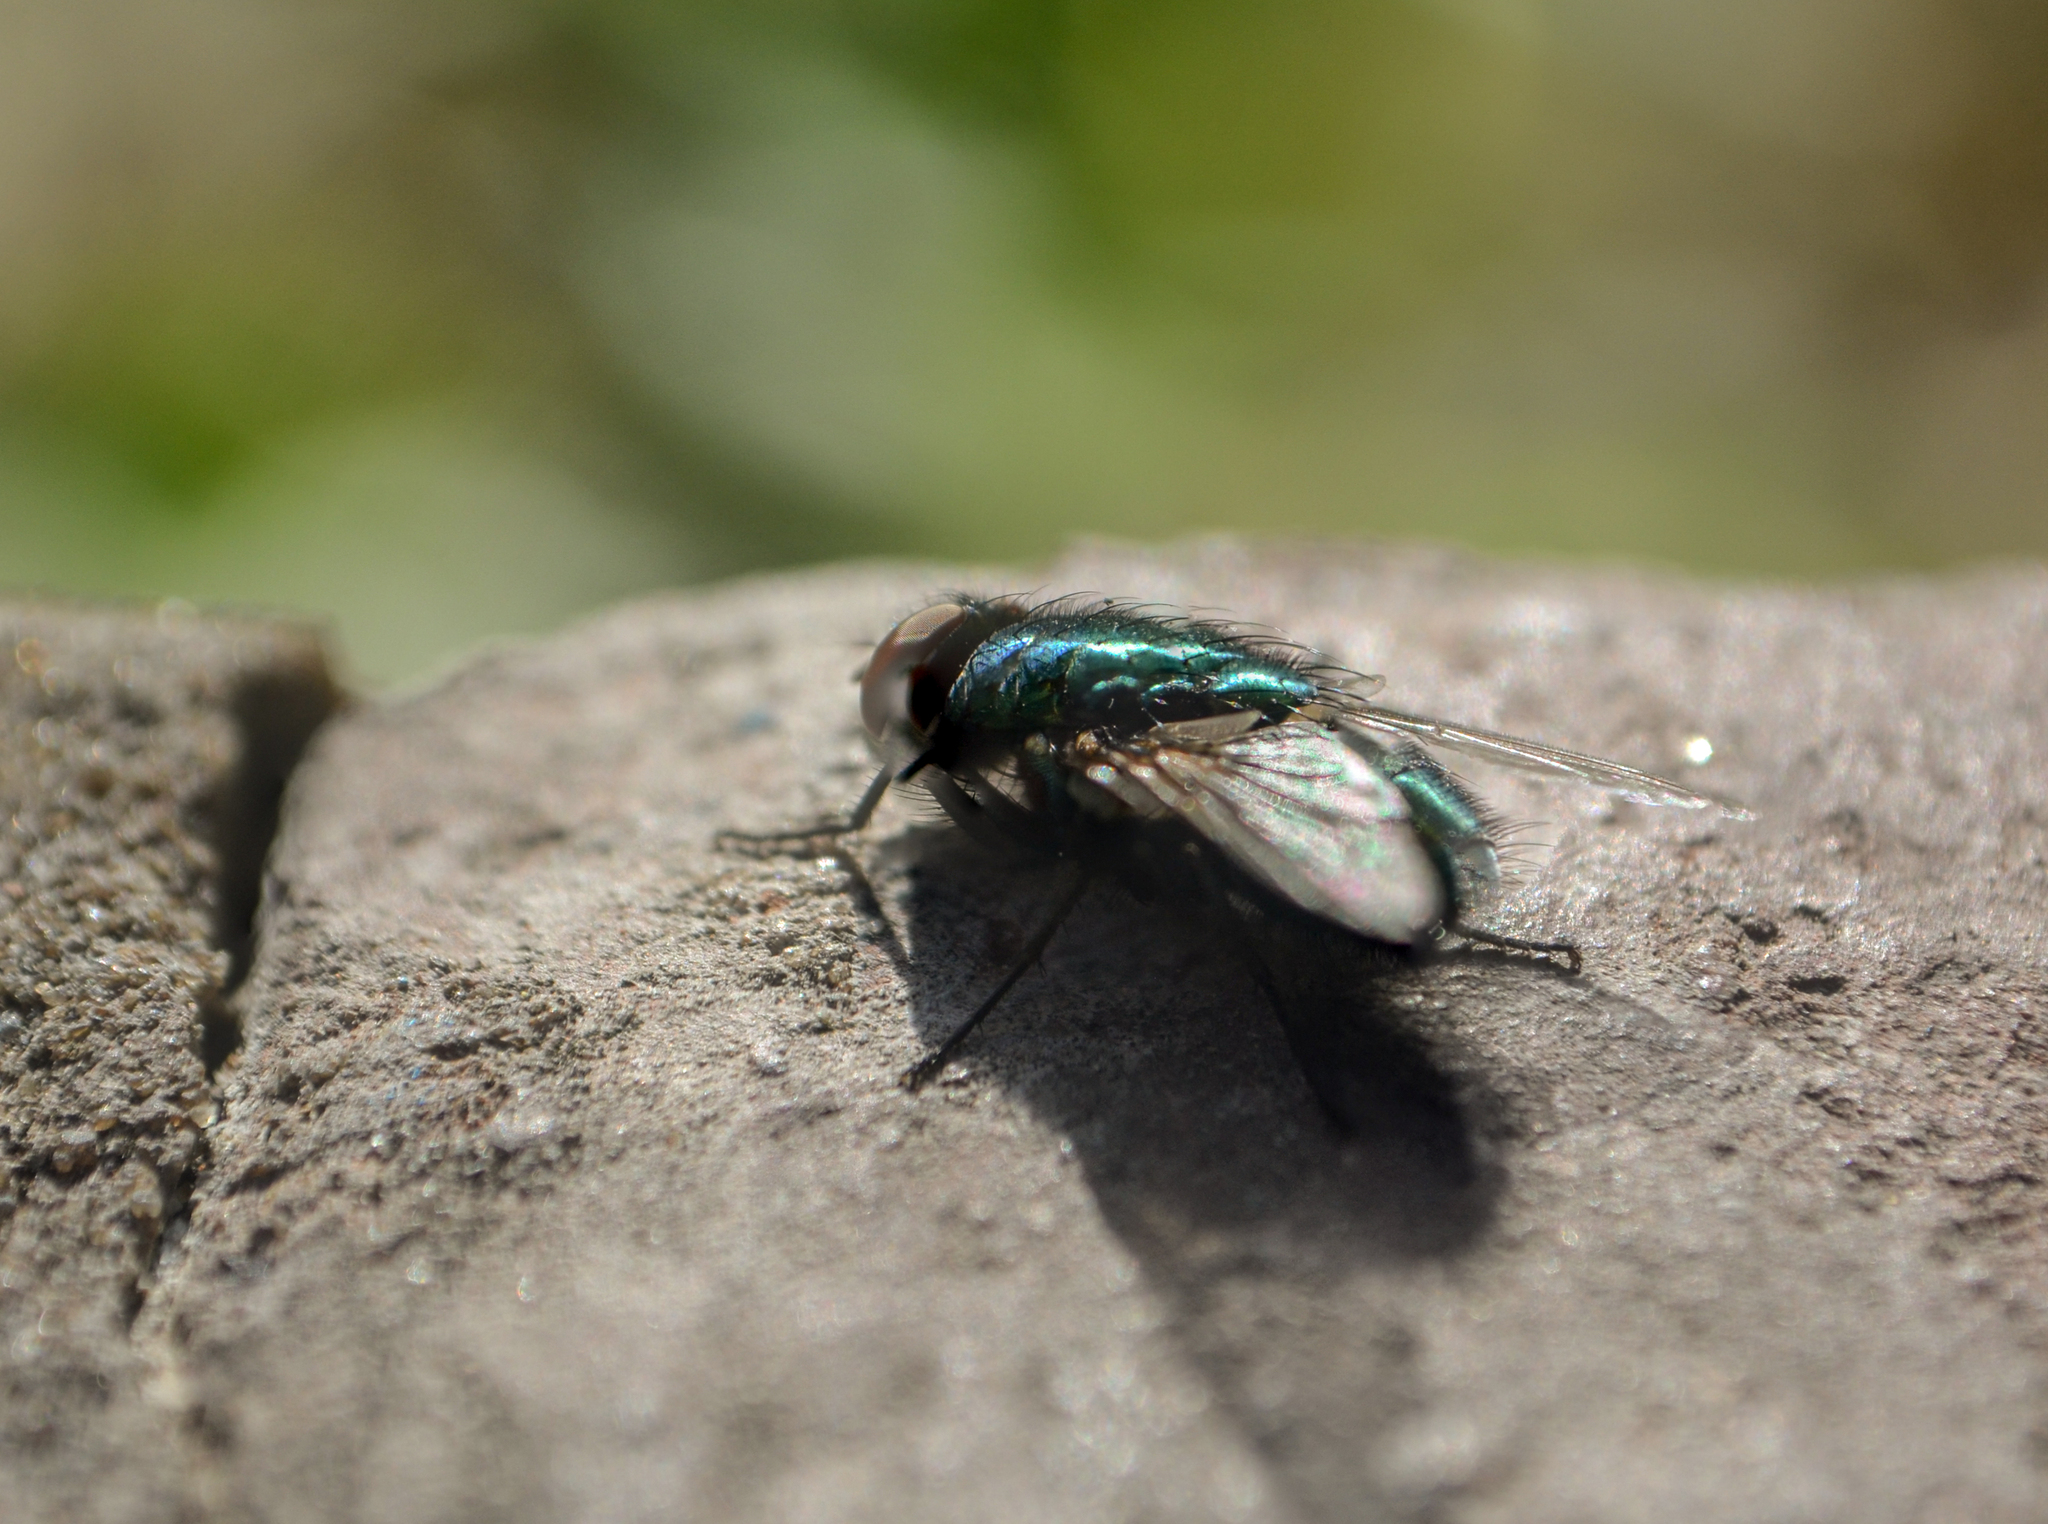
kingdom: Animalia
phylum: Arthropoda
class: Insecta
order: Diptera
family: Calliphoridae
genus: Lucilia
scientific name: Lucilia eximia
